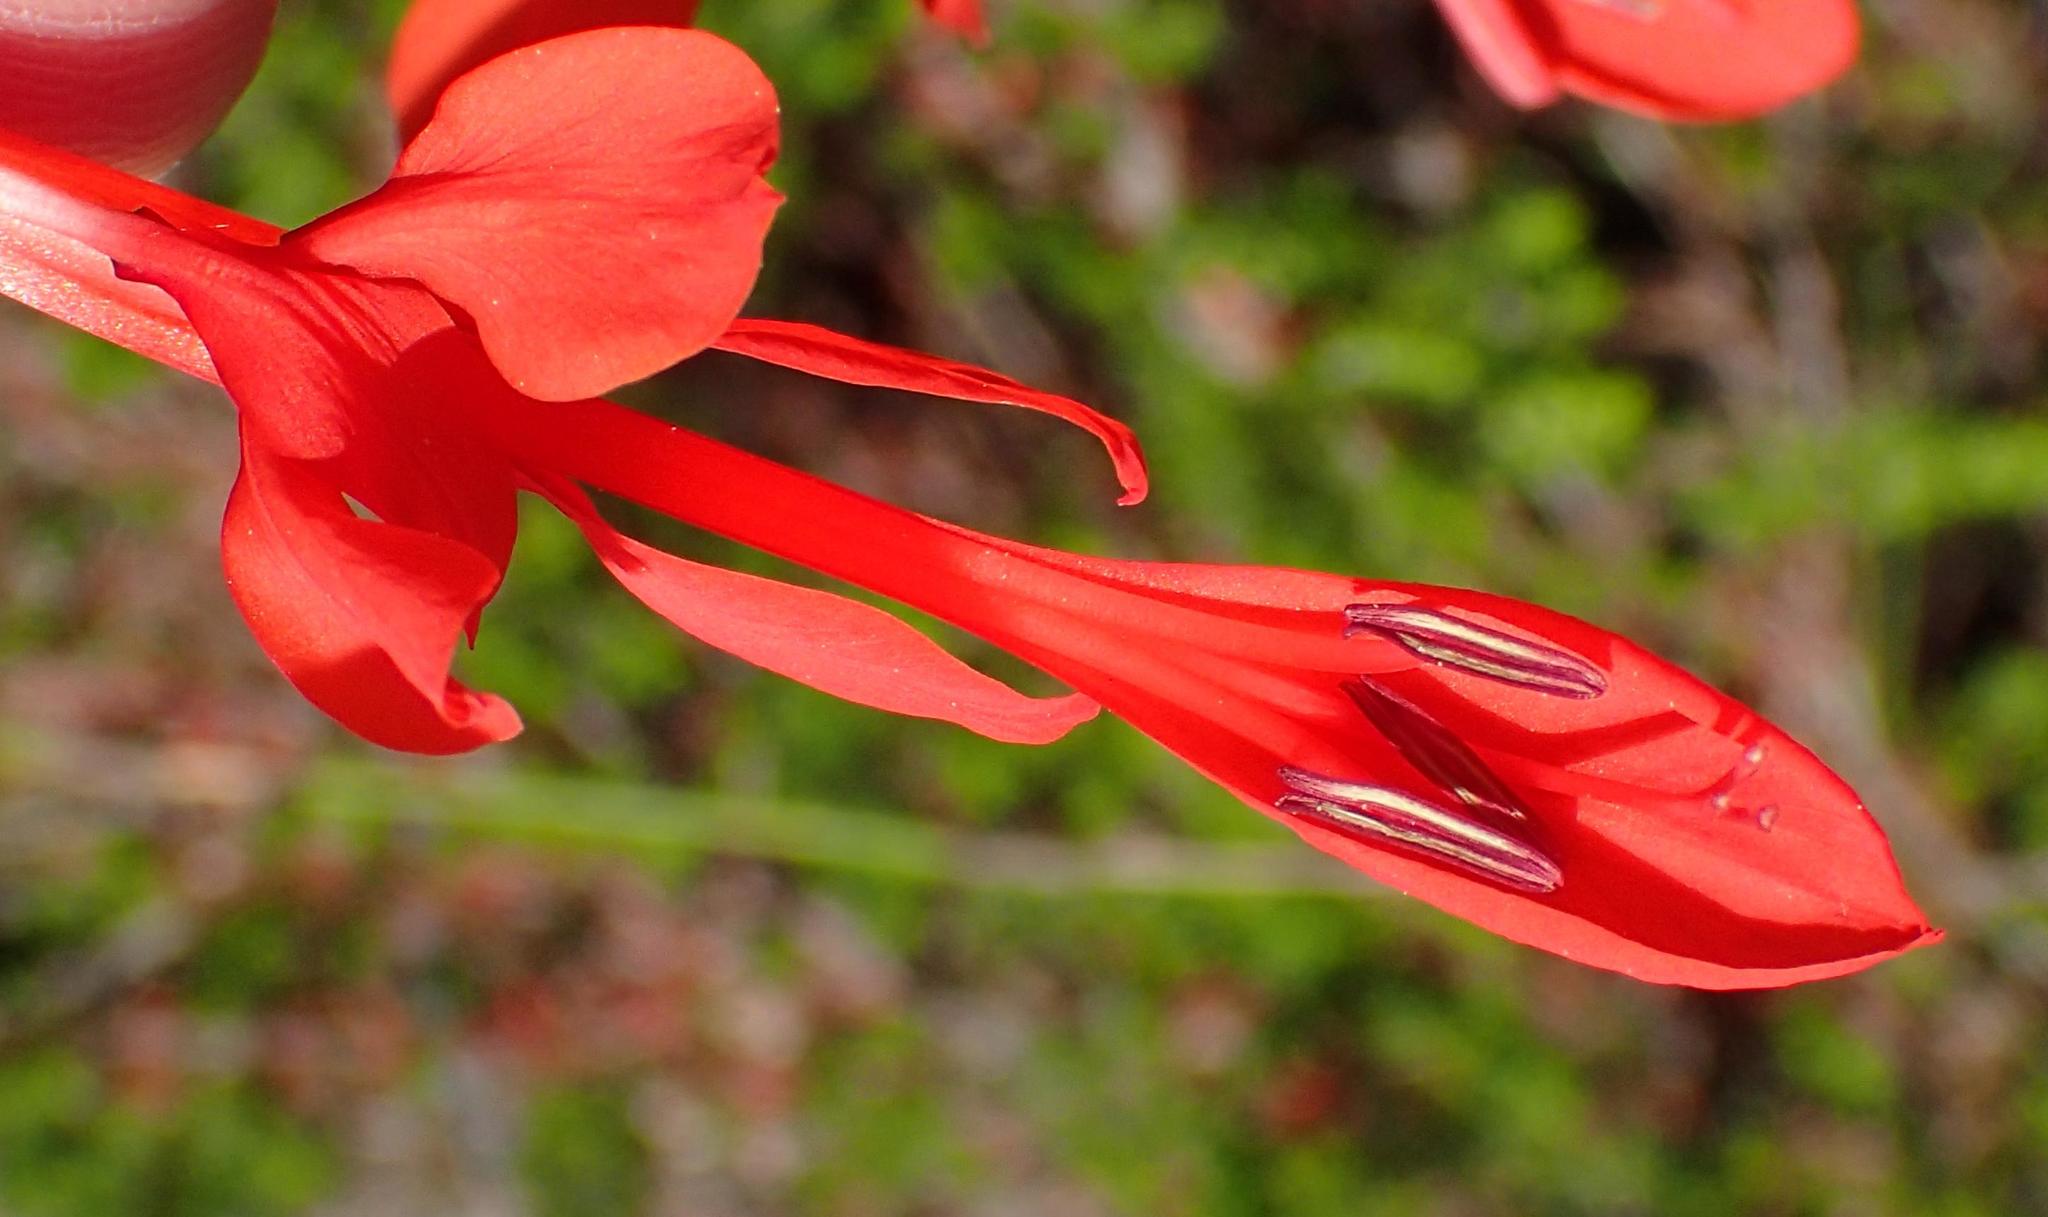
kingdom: Plantae
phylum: Tracheophyta
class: Liliopsida
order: Asparagales
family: Iridaceae
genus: Tritoniopsis
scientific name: Tritoniopsis caffra
